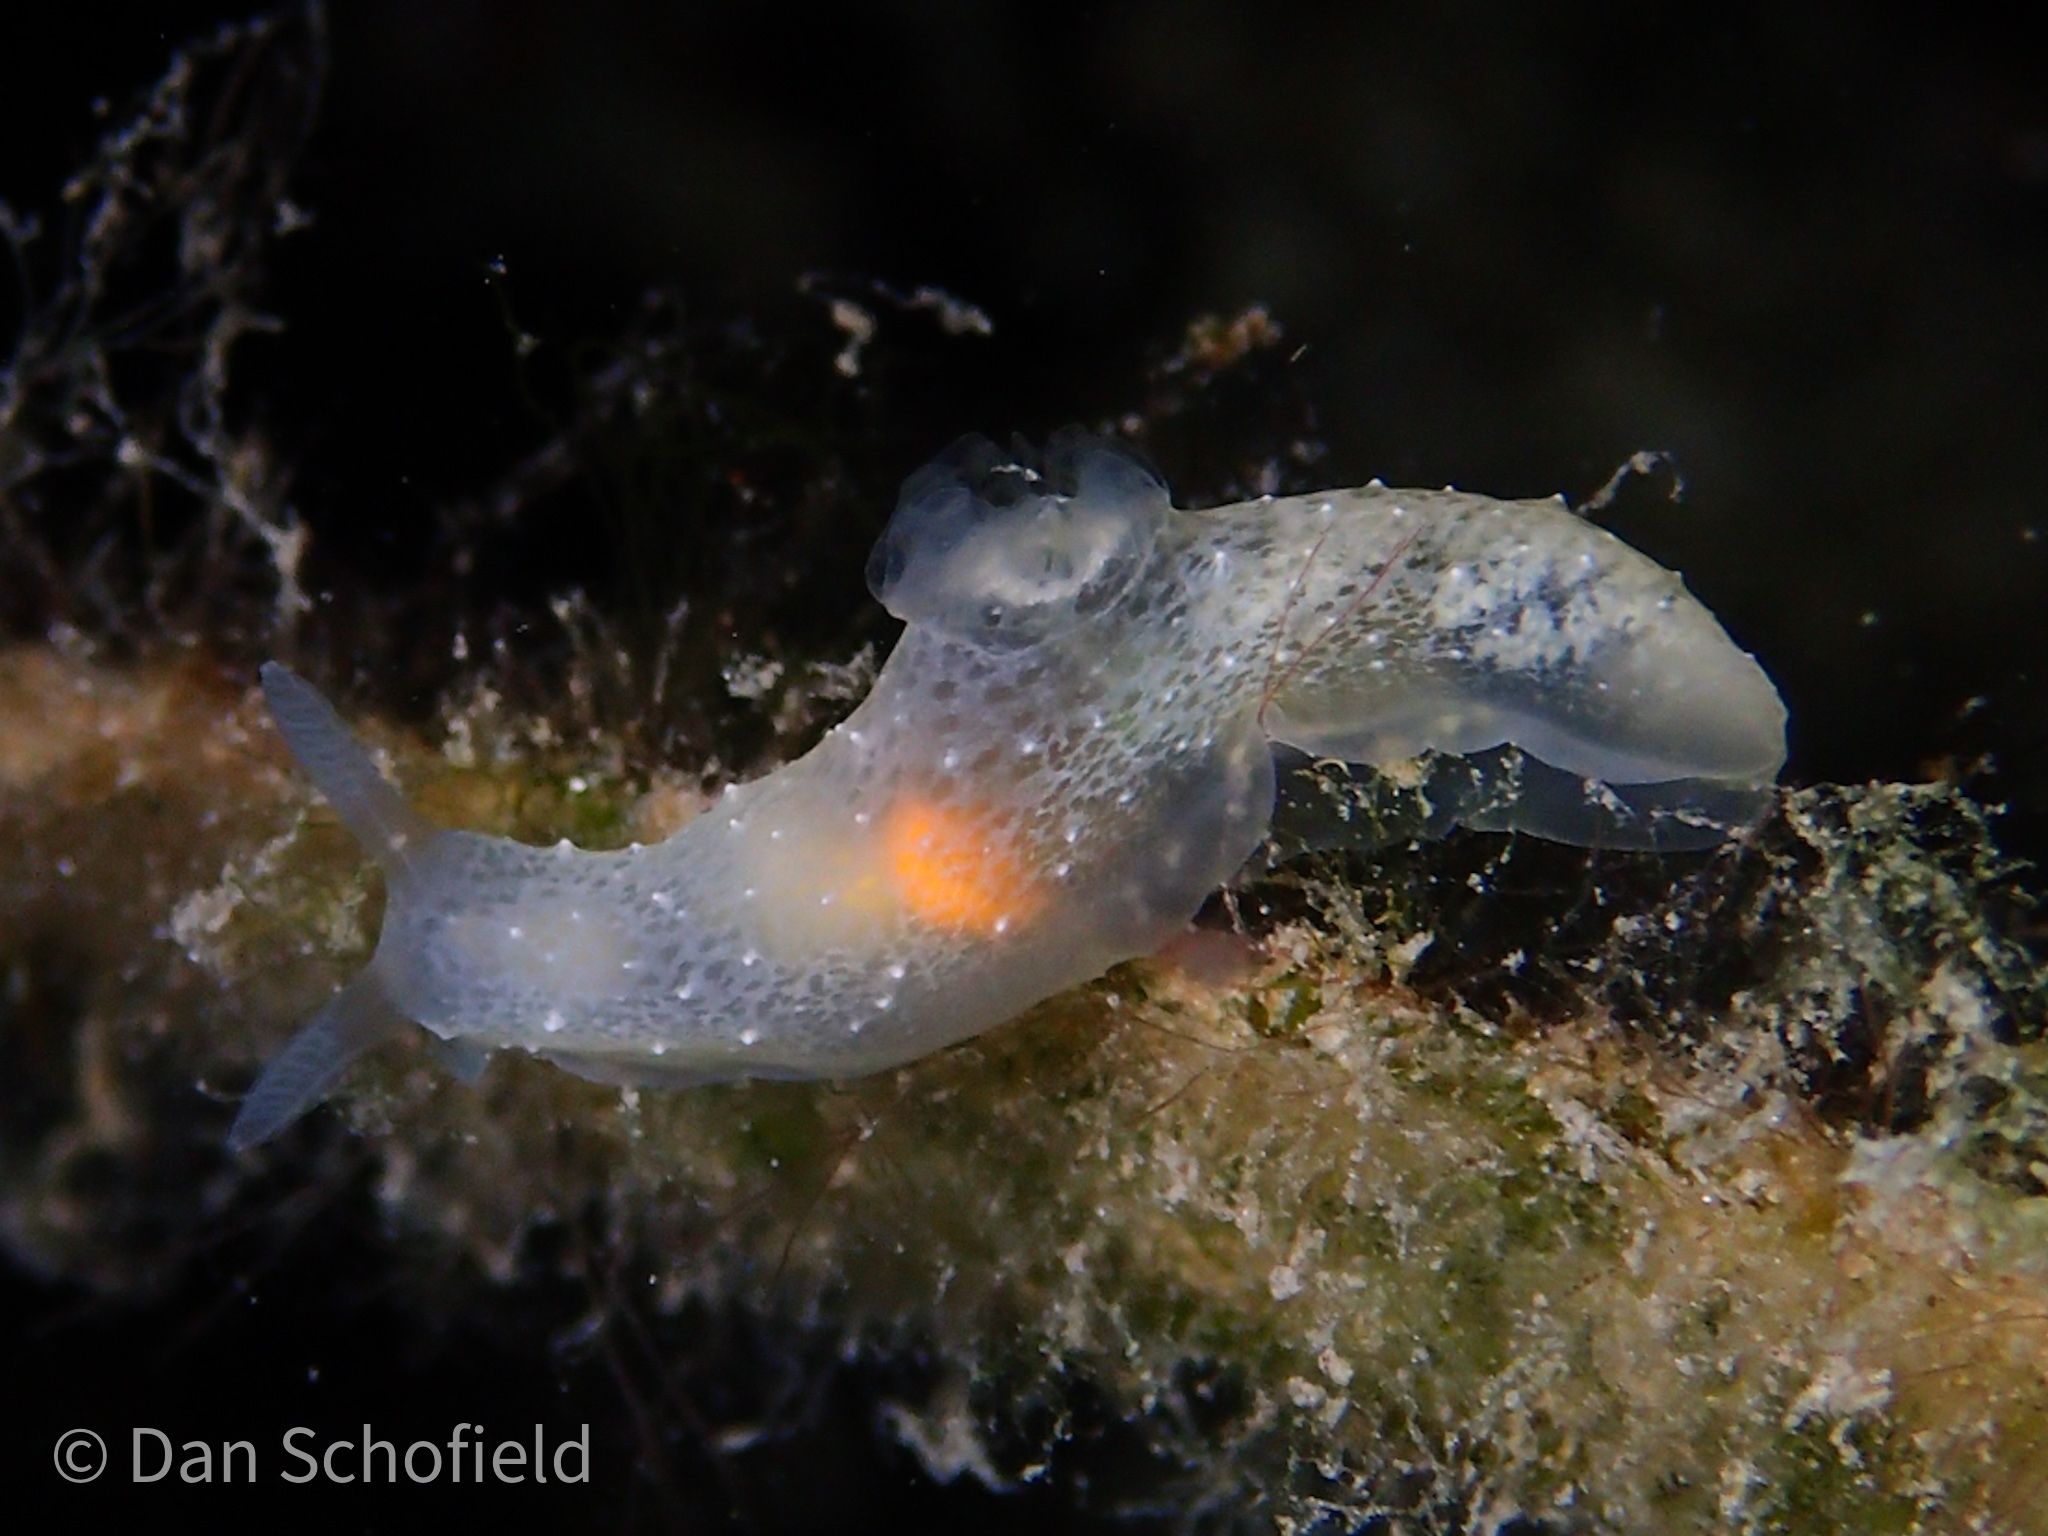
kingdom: Animalia
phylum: Mollusca
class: Gastropoda
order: Nudibranchia
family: Polyceridae
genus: Gymnodoris
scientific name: Gymnodoris
